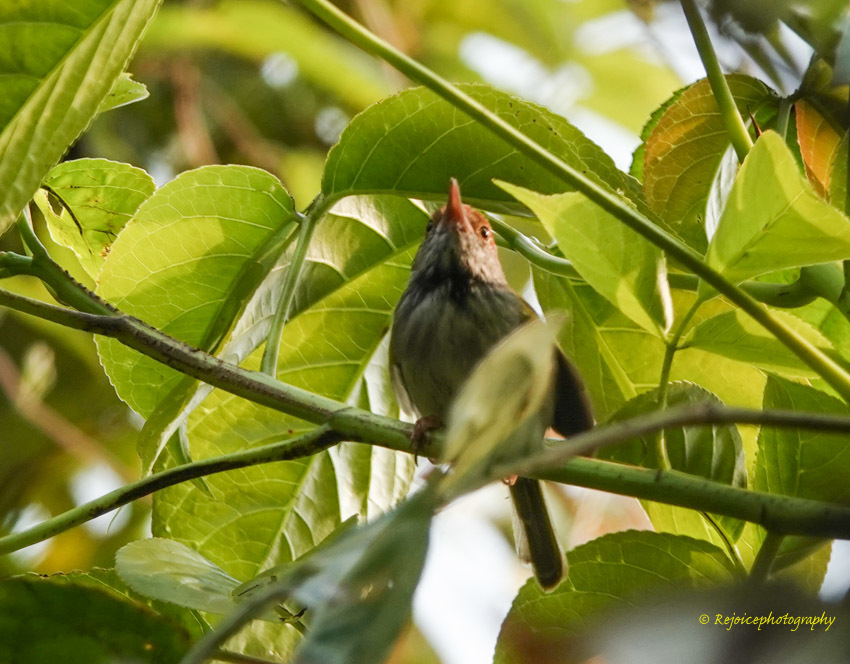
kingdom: Animalia
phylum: Chordata
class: Aves
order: Passeriformes
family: Cisticolidae
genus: Orthotomus
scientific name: Orthotomus atrogularis
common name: Dark-necked tailorbird
